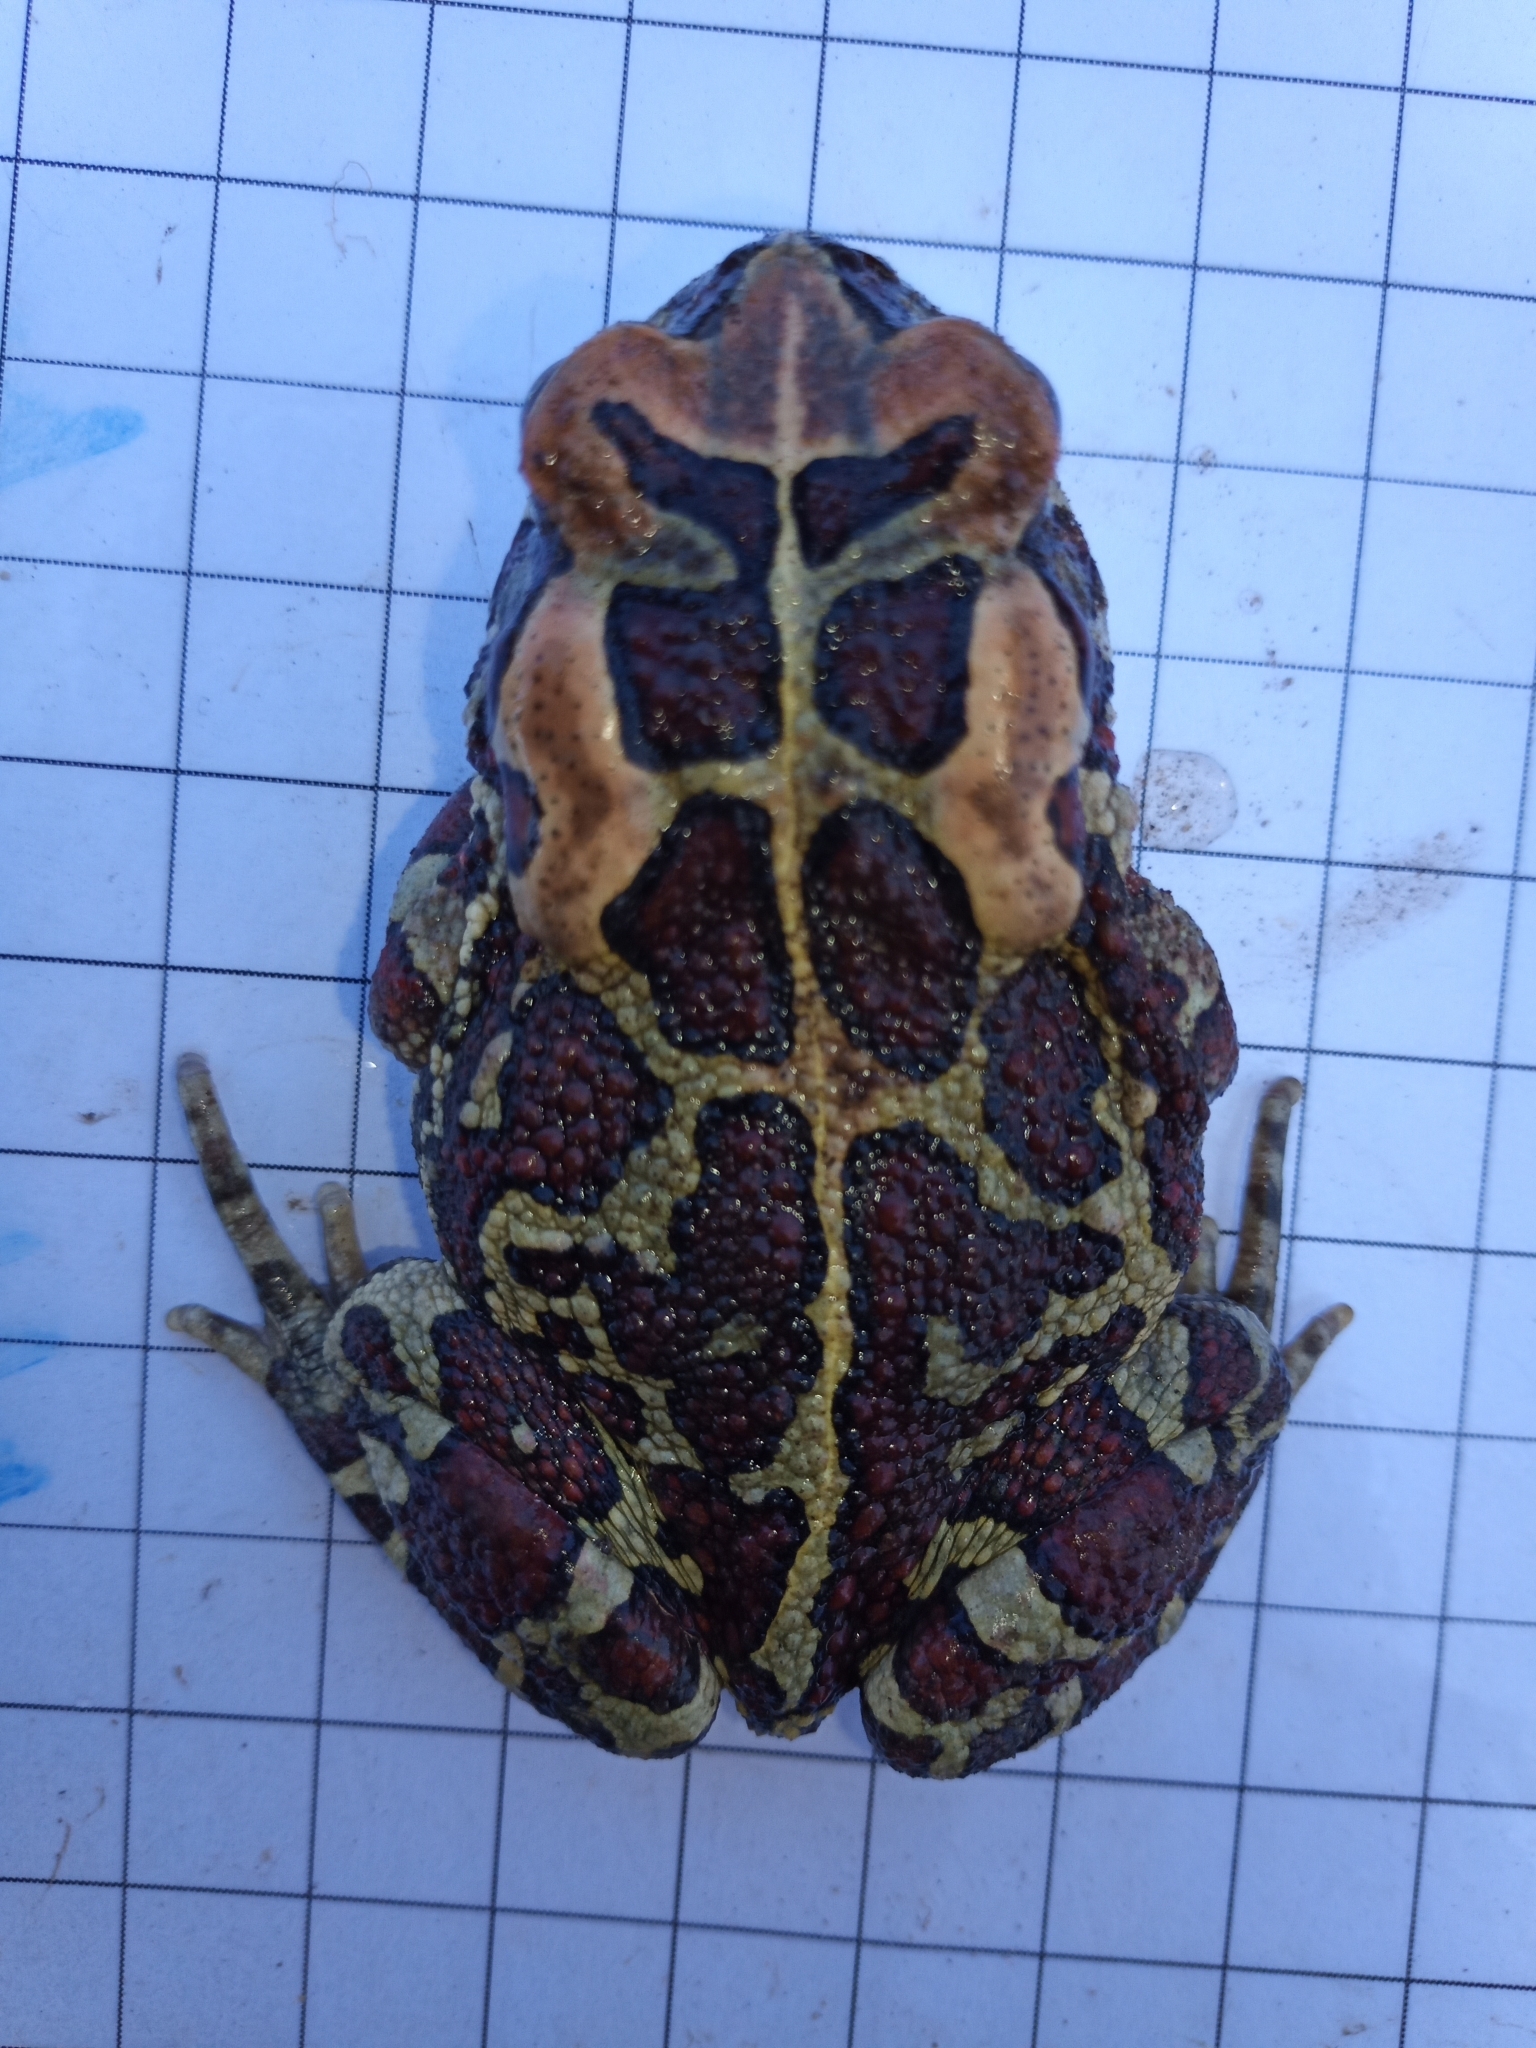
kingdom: Animalia
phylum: Chordata
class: Amphibia
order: Anura
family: Bufonidae
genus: Sclerophrys
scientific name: Sclerophrys pantherina
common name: Panther toad
